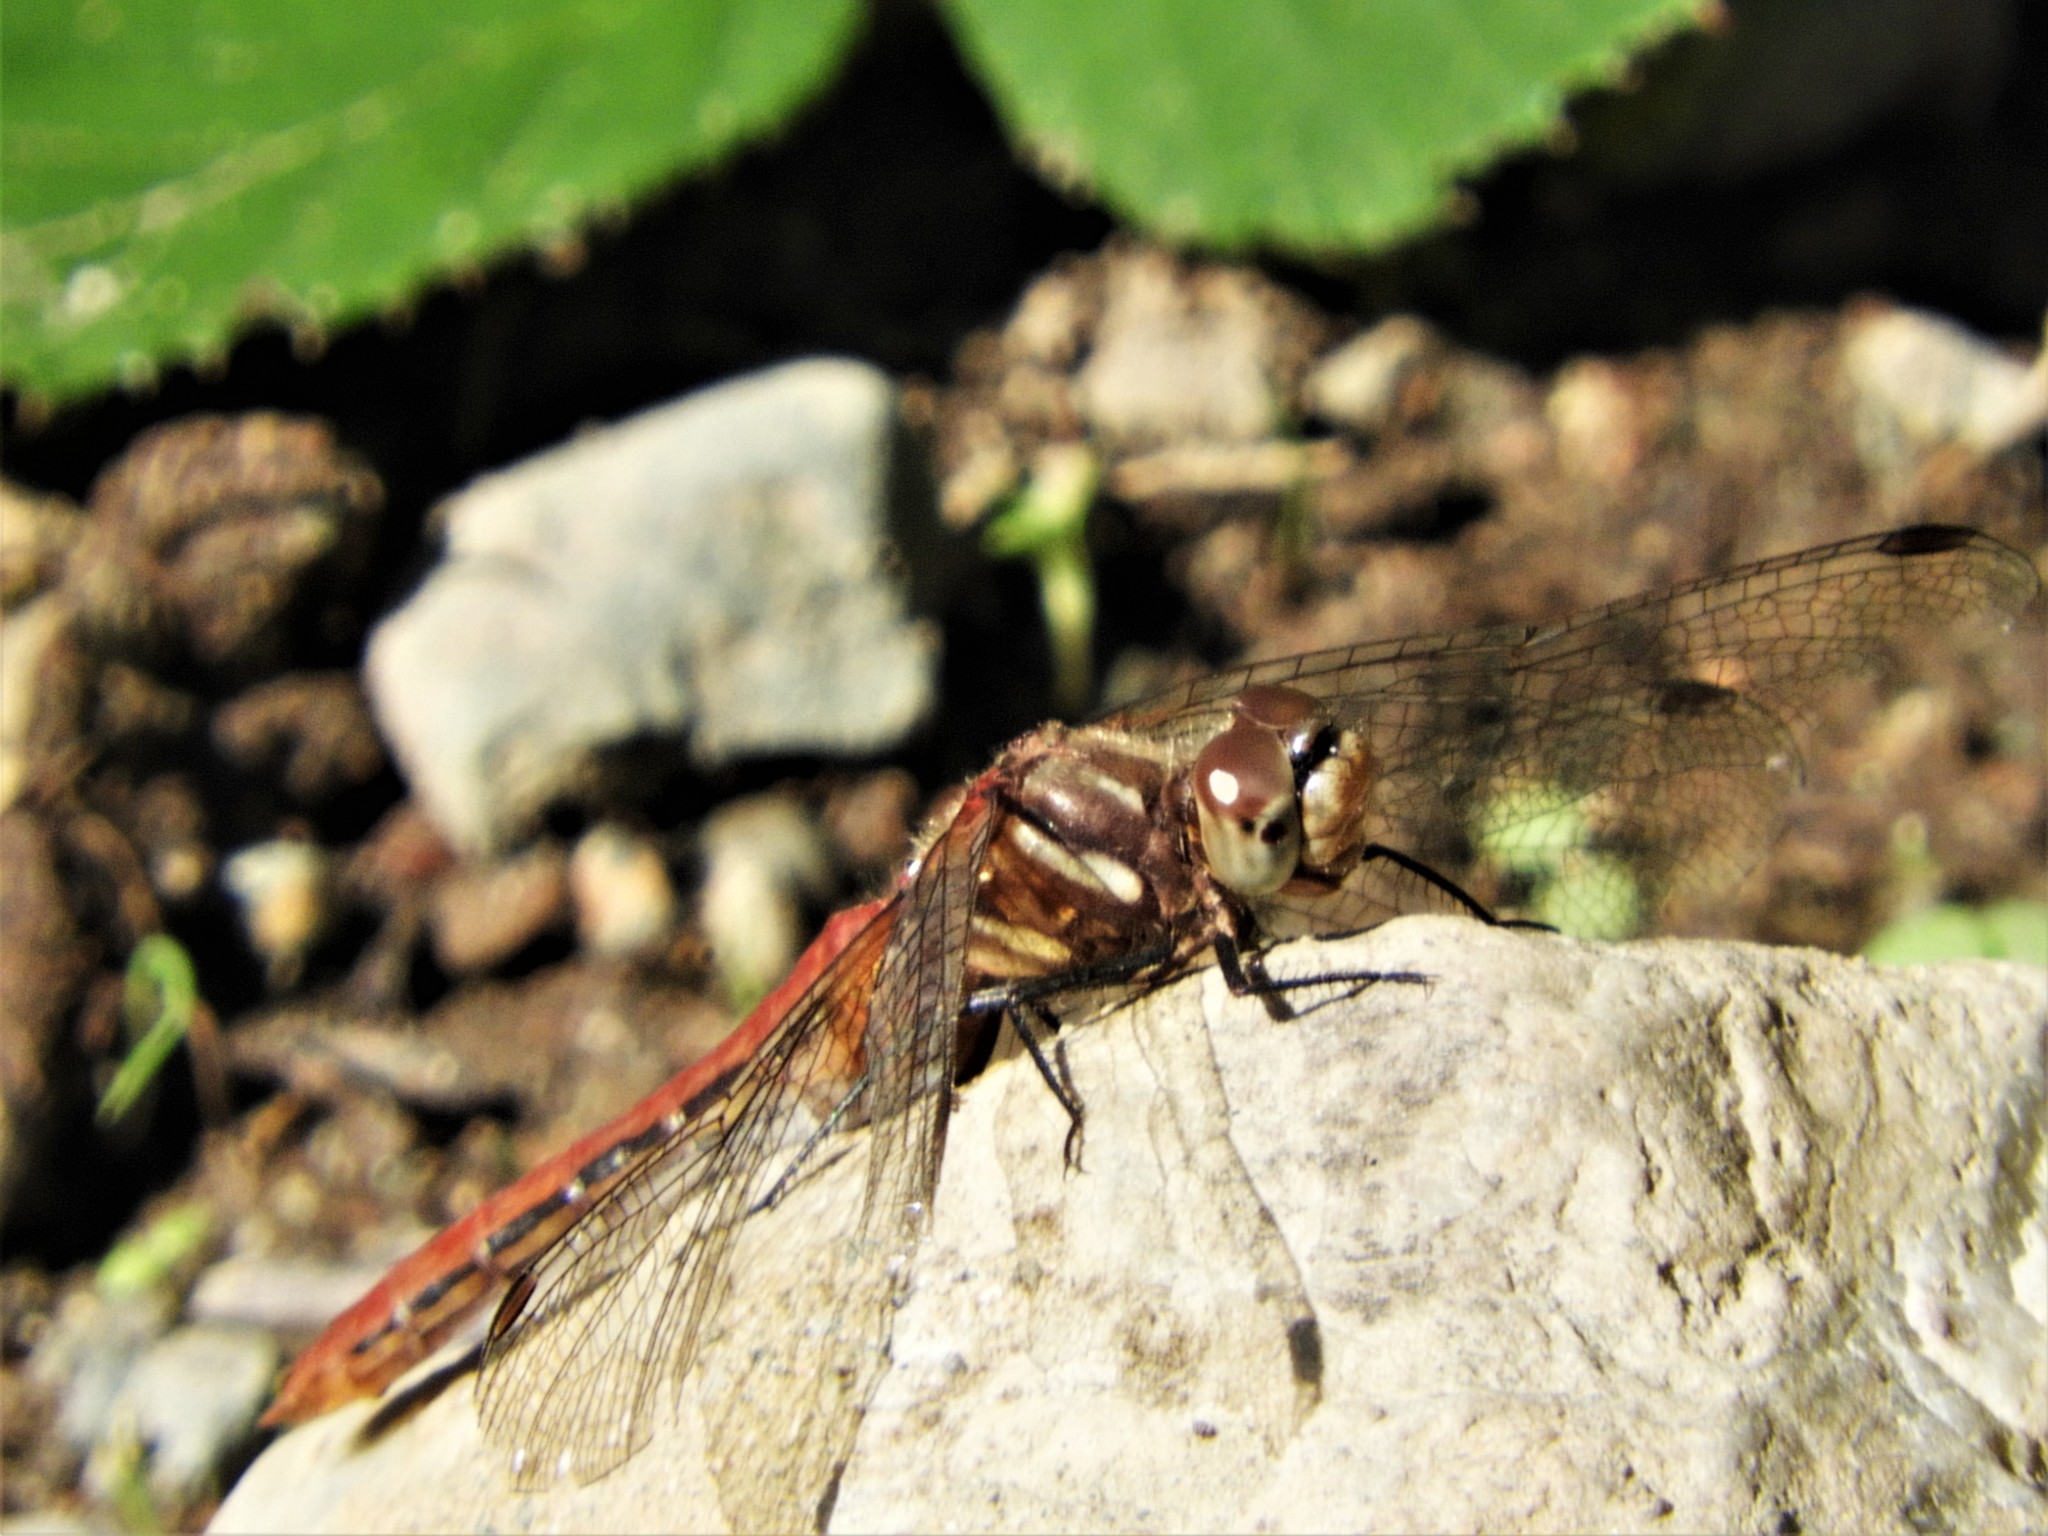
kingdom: Animalia
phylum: Arthropoda
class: Insecta
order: Odonata
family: Libellulidae
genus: Sympetrum
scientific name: Sympetrum pallipes
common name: Striped meadowhawk
